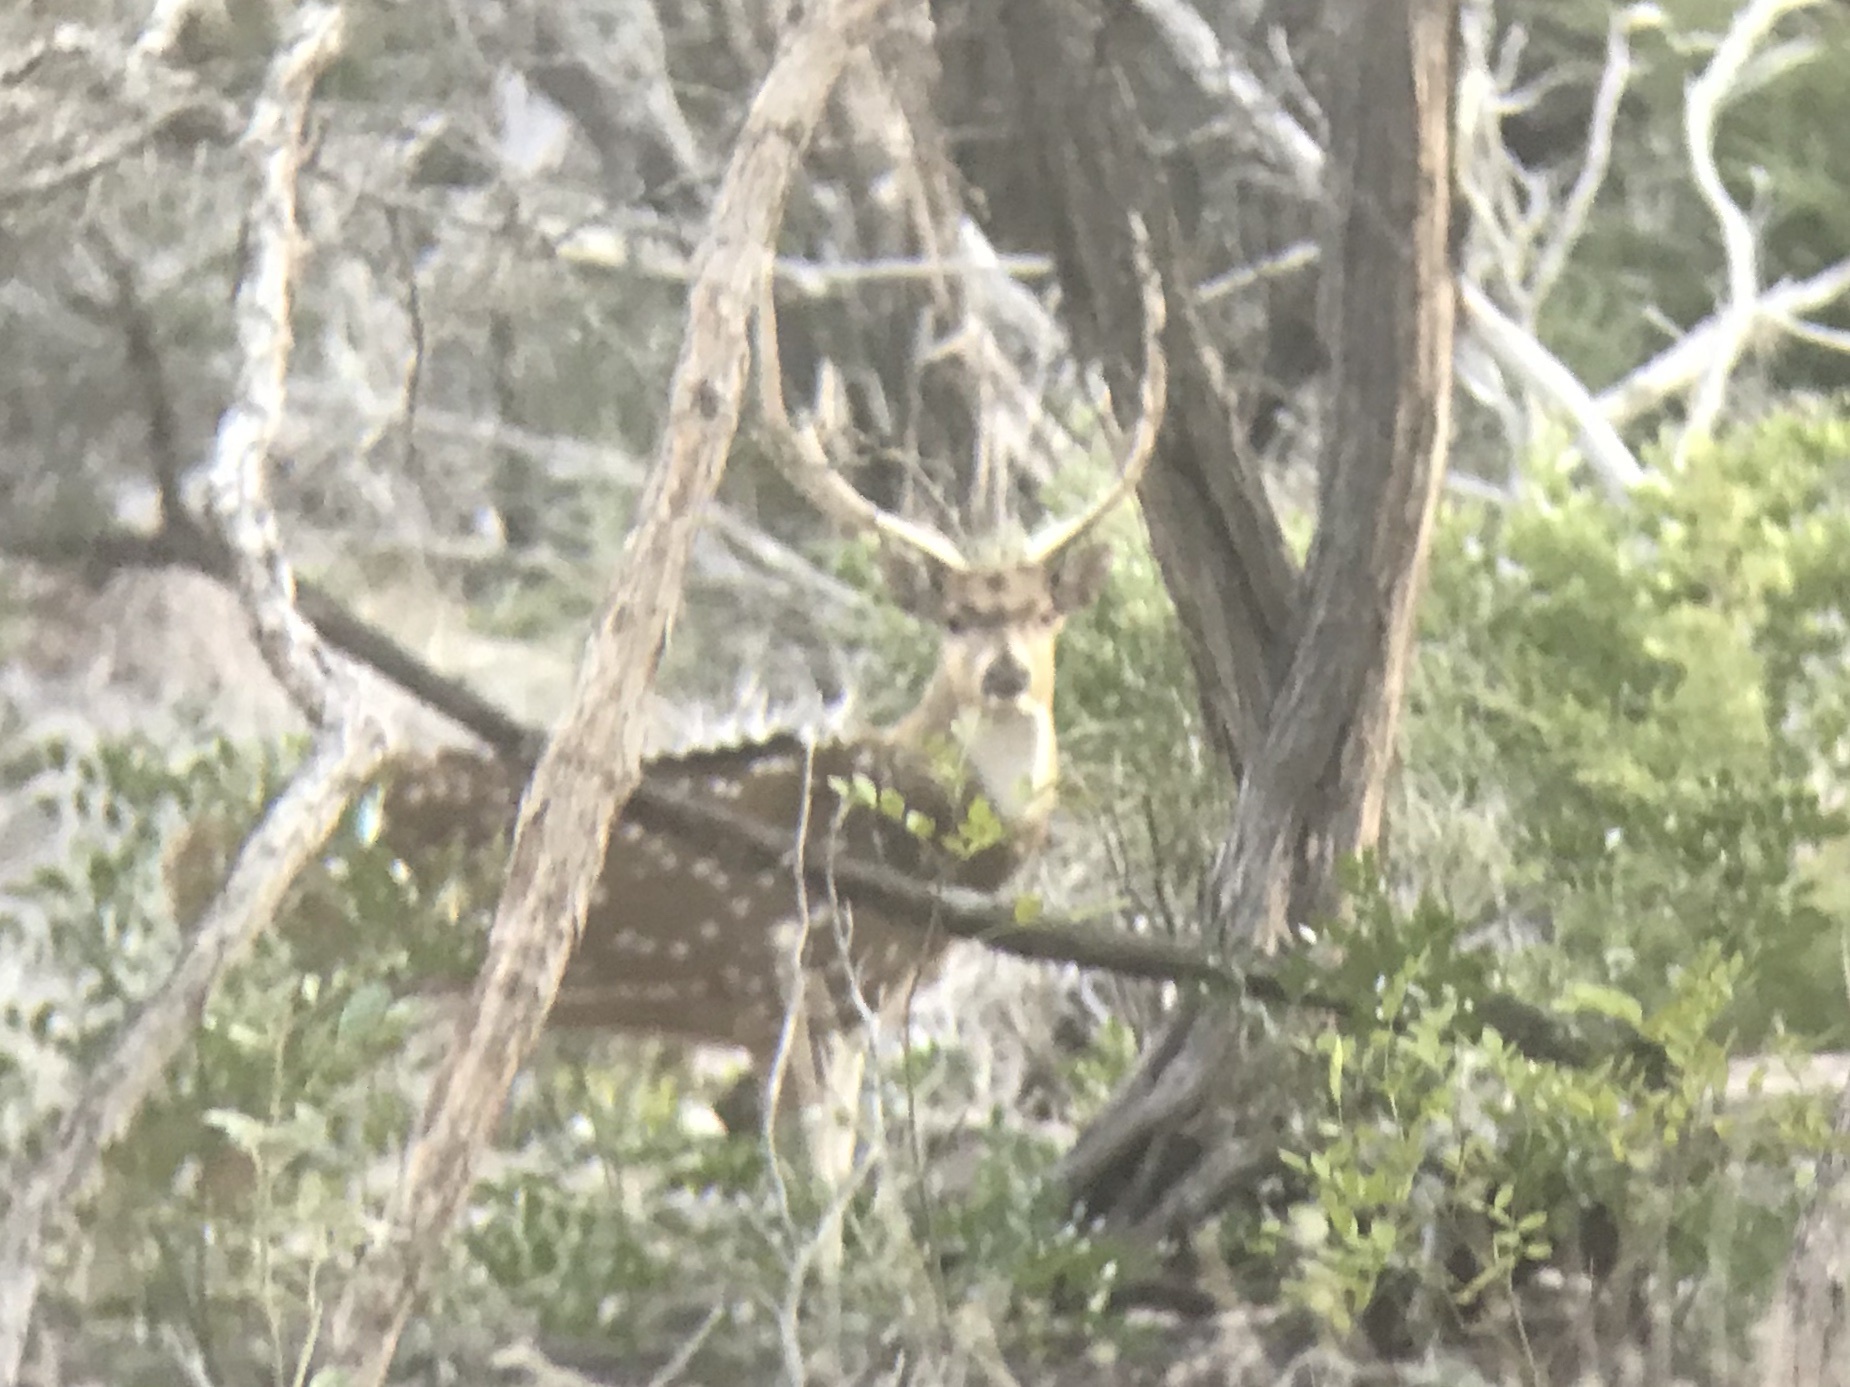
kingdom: Animalia
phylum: Chordata
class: Mammalia
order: Artiodactyla
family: Cervidae
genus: Axis
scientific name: Axis axis
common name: Chital
